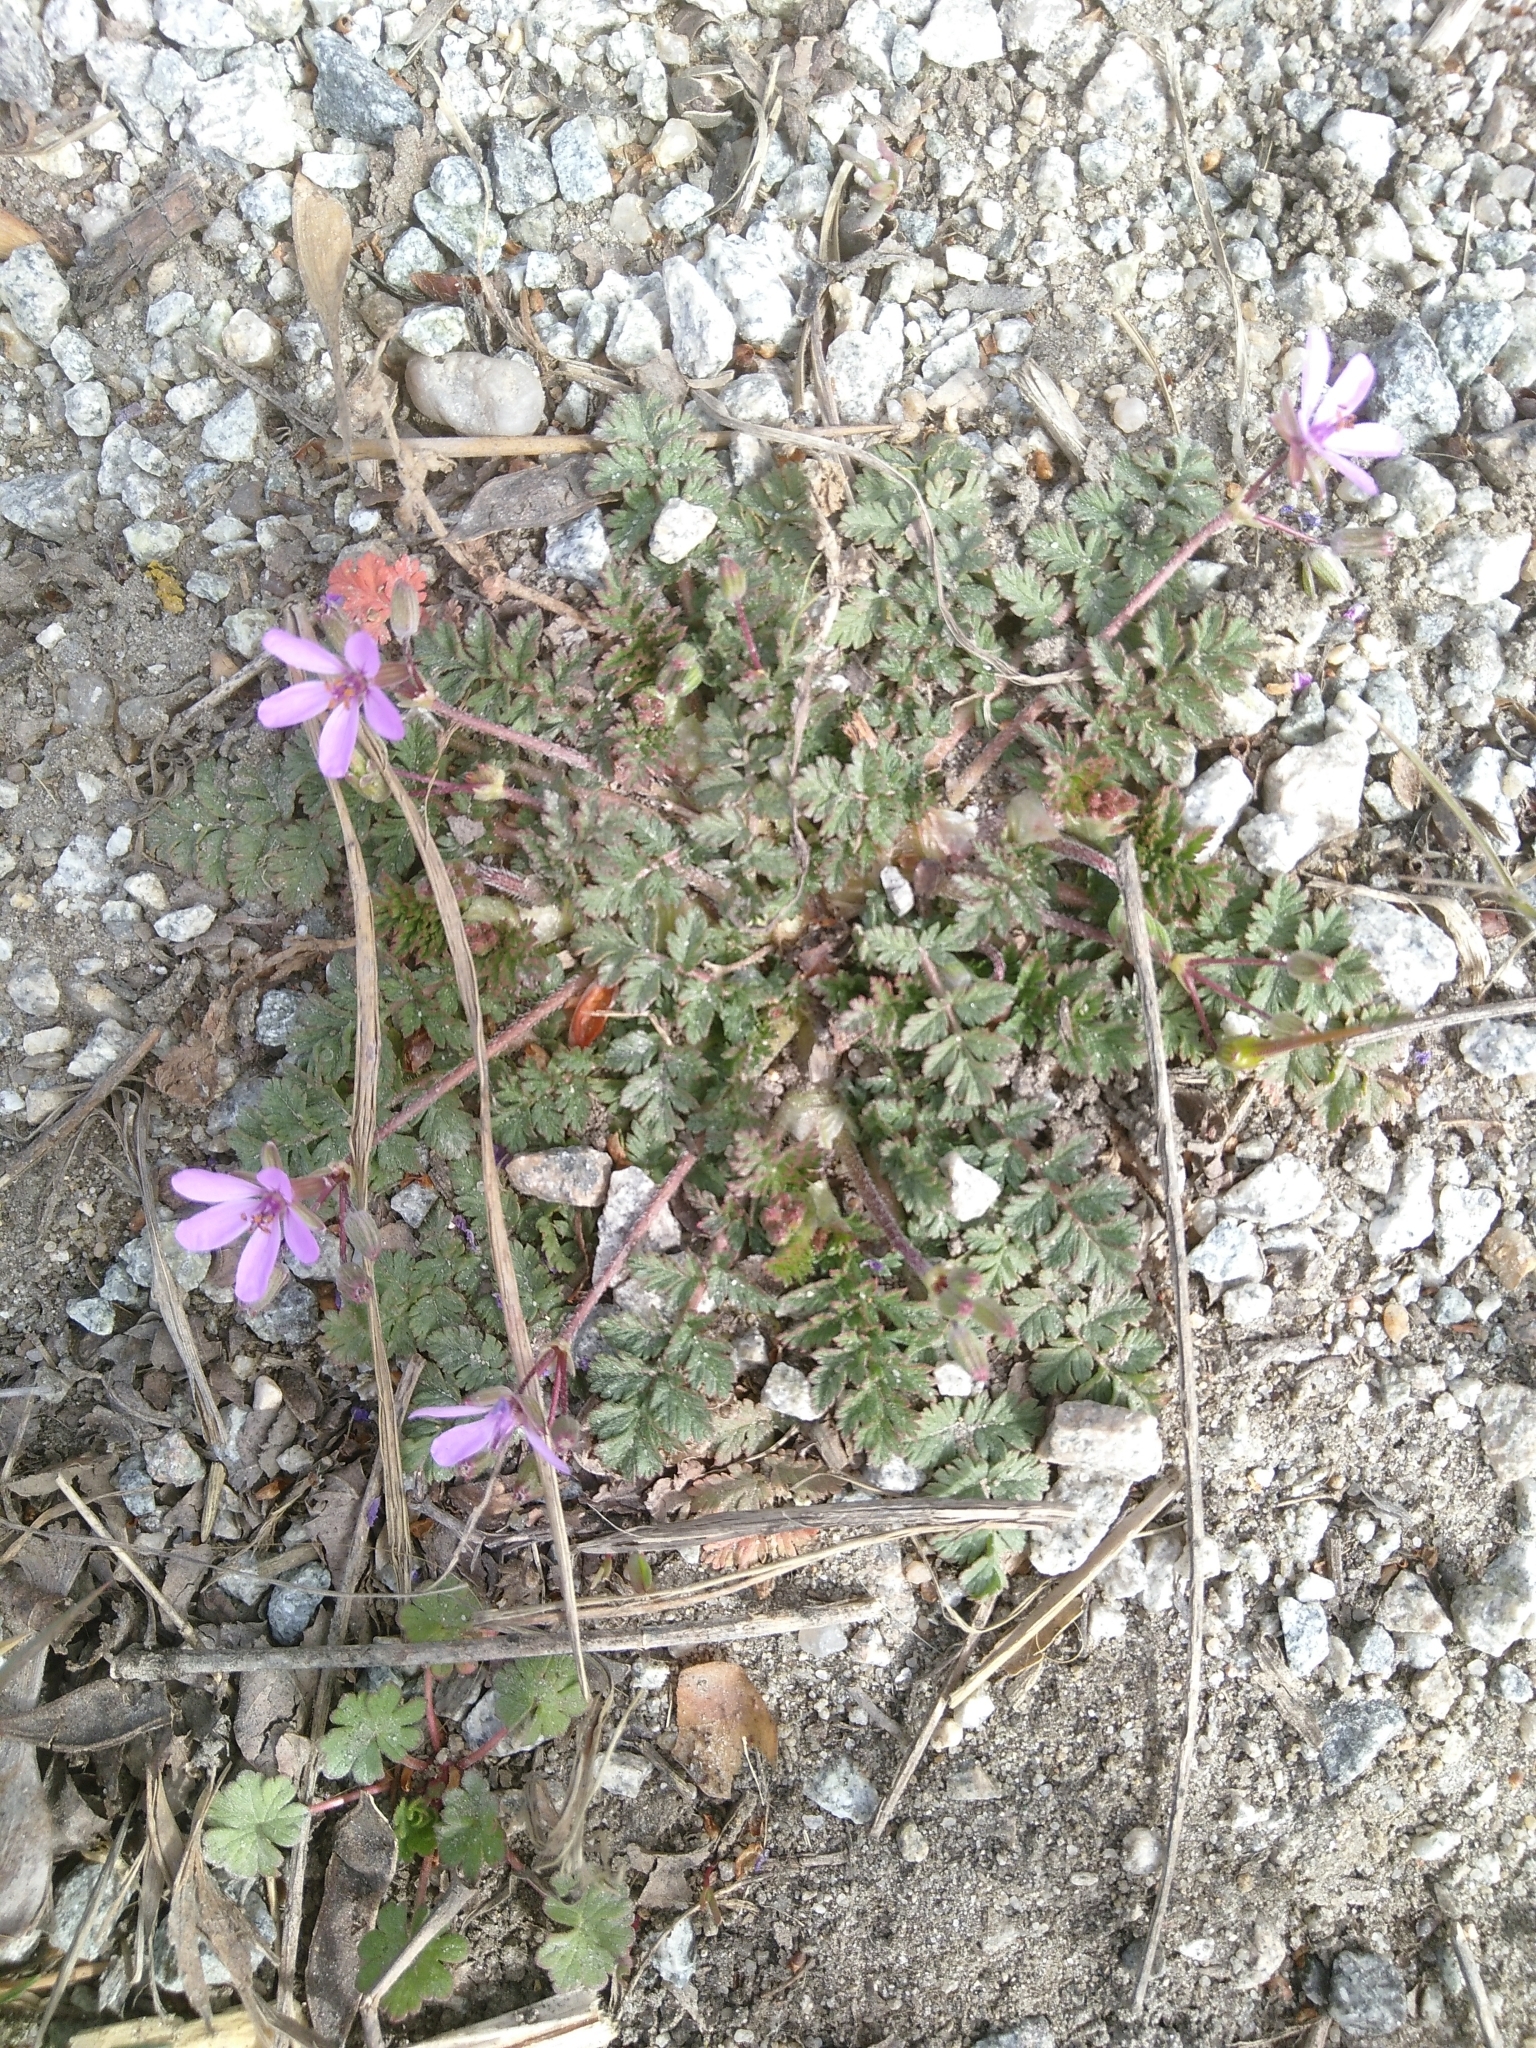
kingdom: Plantae
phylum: Tracheophyta
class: Magnoliopsida
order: Geraniales
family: Geraniaceae
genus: Erodium
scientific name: Erodium cicutarium
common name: Common stork's-bill
